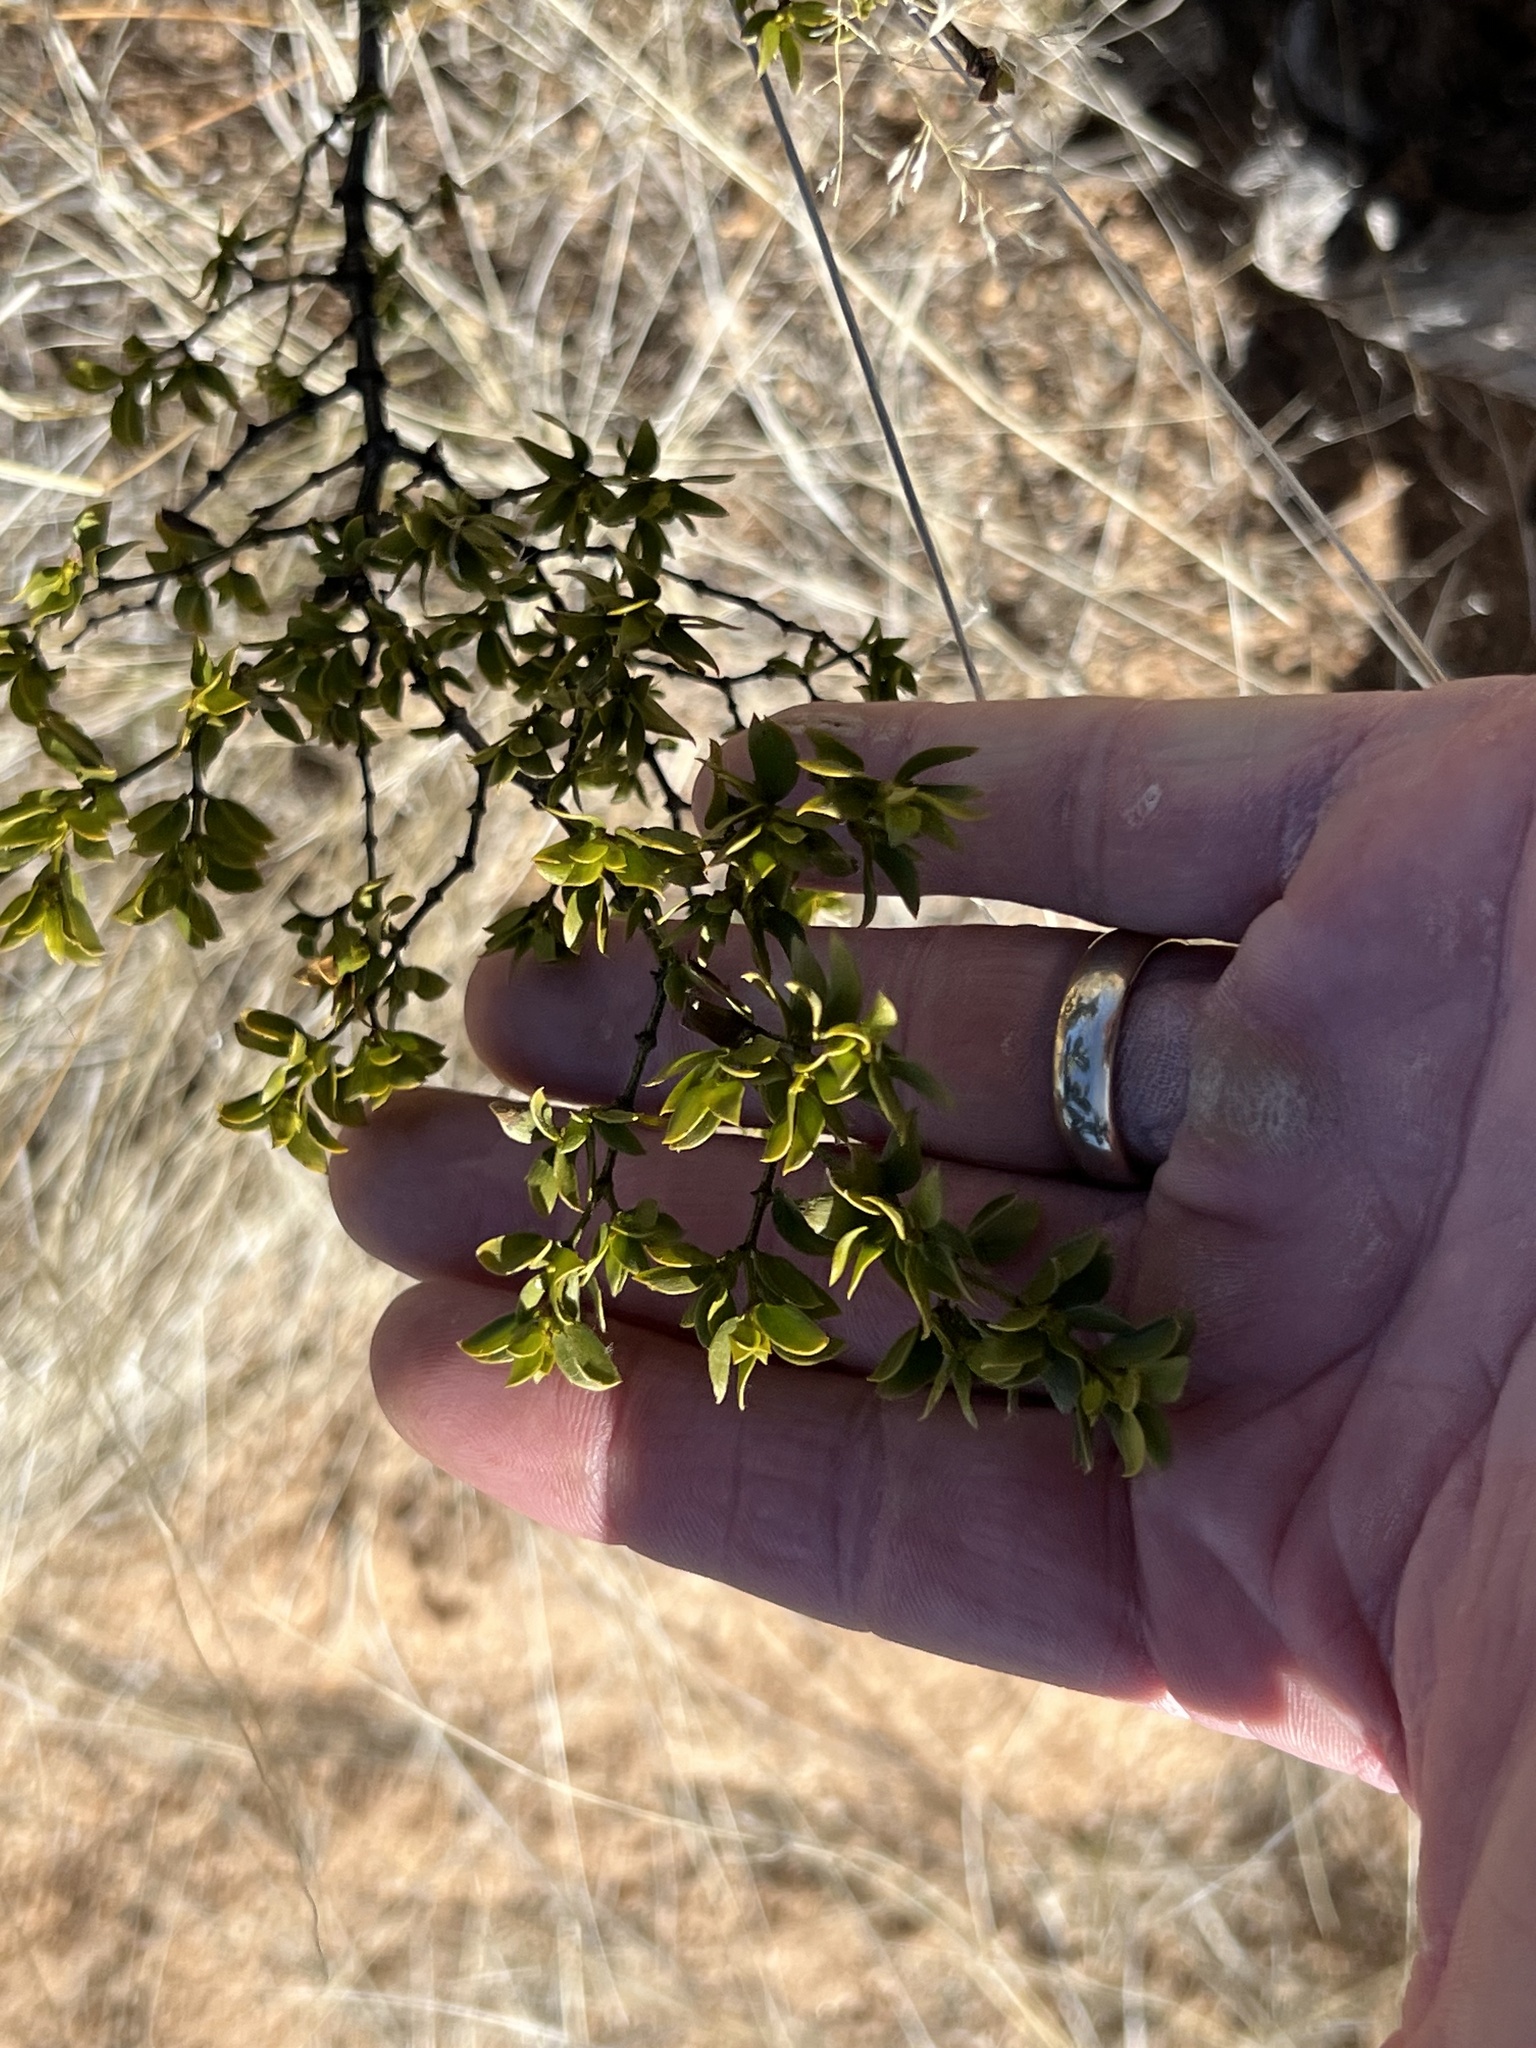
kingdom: Plantae
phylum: Tracheophyta
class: Magnoliopsida
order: Zygophyllales
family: Zygophyllaceae
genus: Larrea
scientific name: Larrea tridentata
